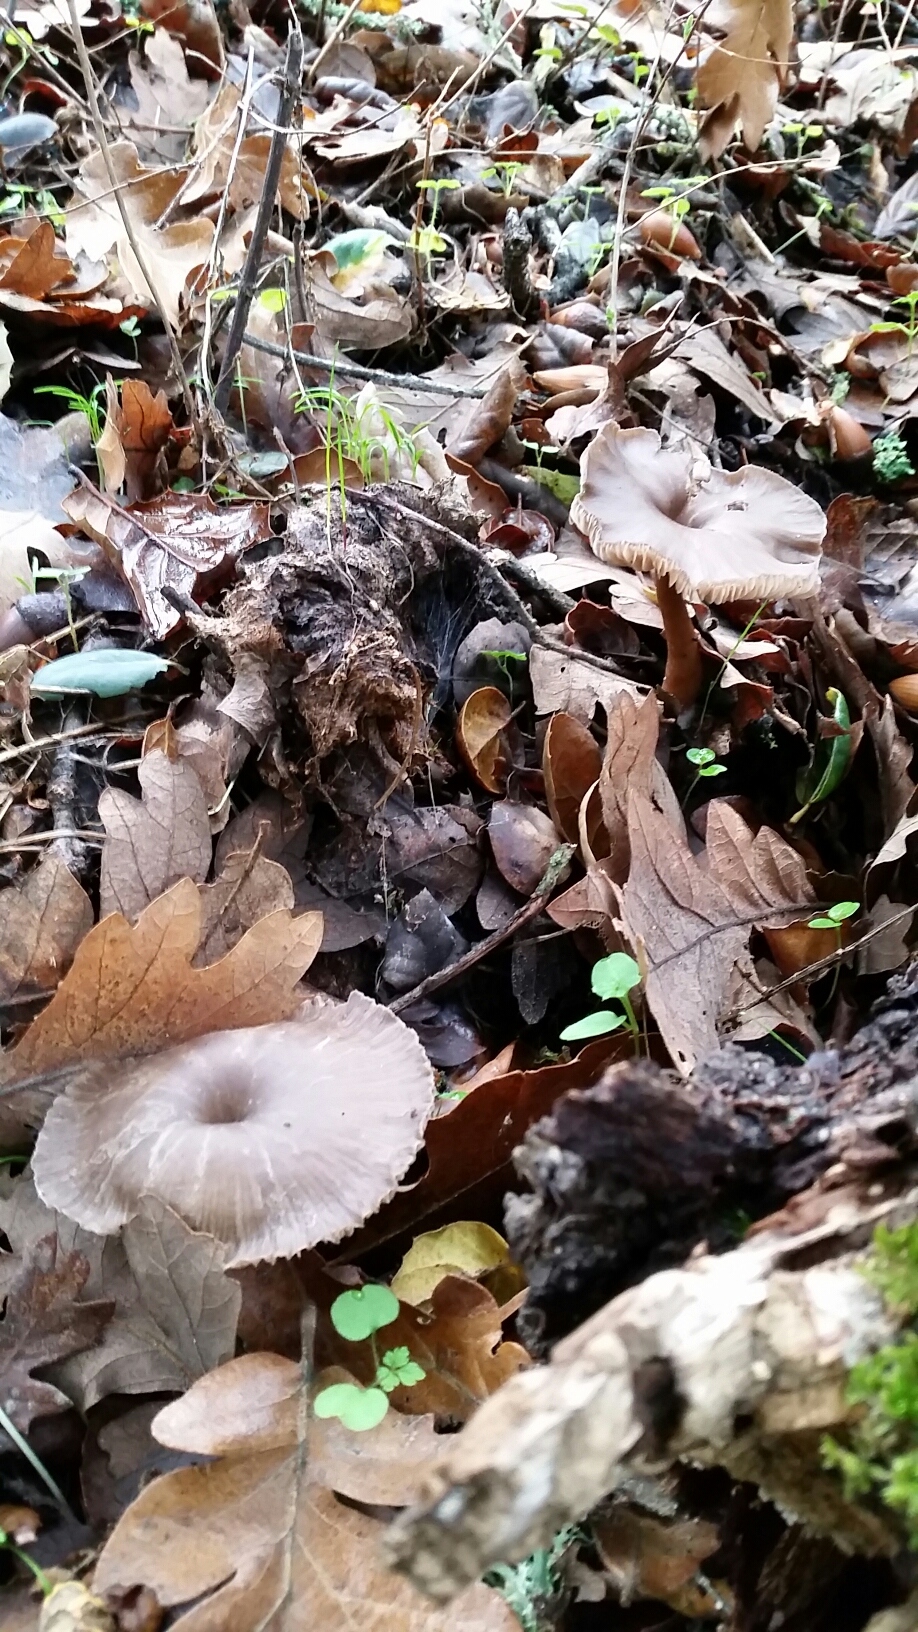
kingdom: Fungi
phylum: Basidiomycota
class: Agaricomycetes
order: Agaricales
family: Pseudoclitocybaceae
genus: Pseudoclitocybe
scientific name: Pseudoclitocybe cyathiformis
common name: Goblet
